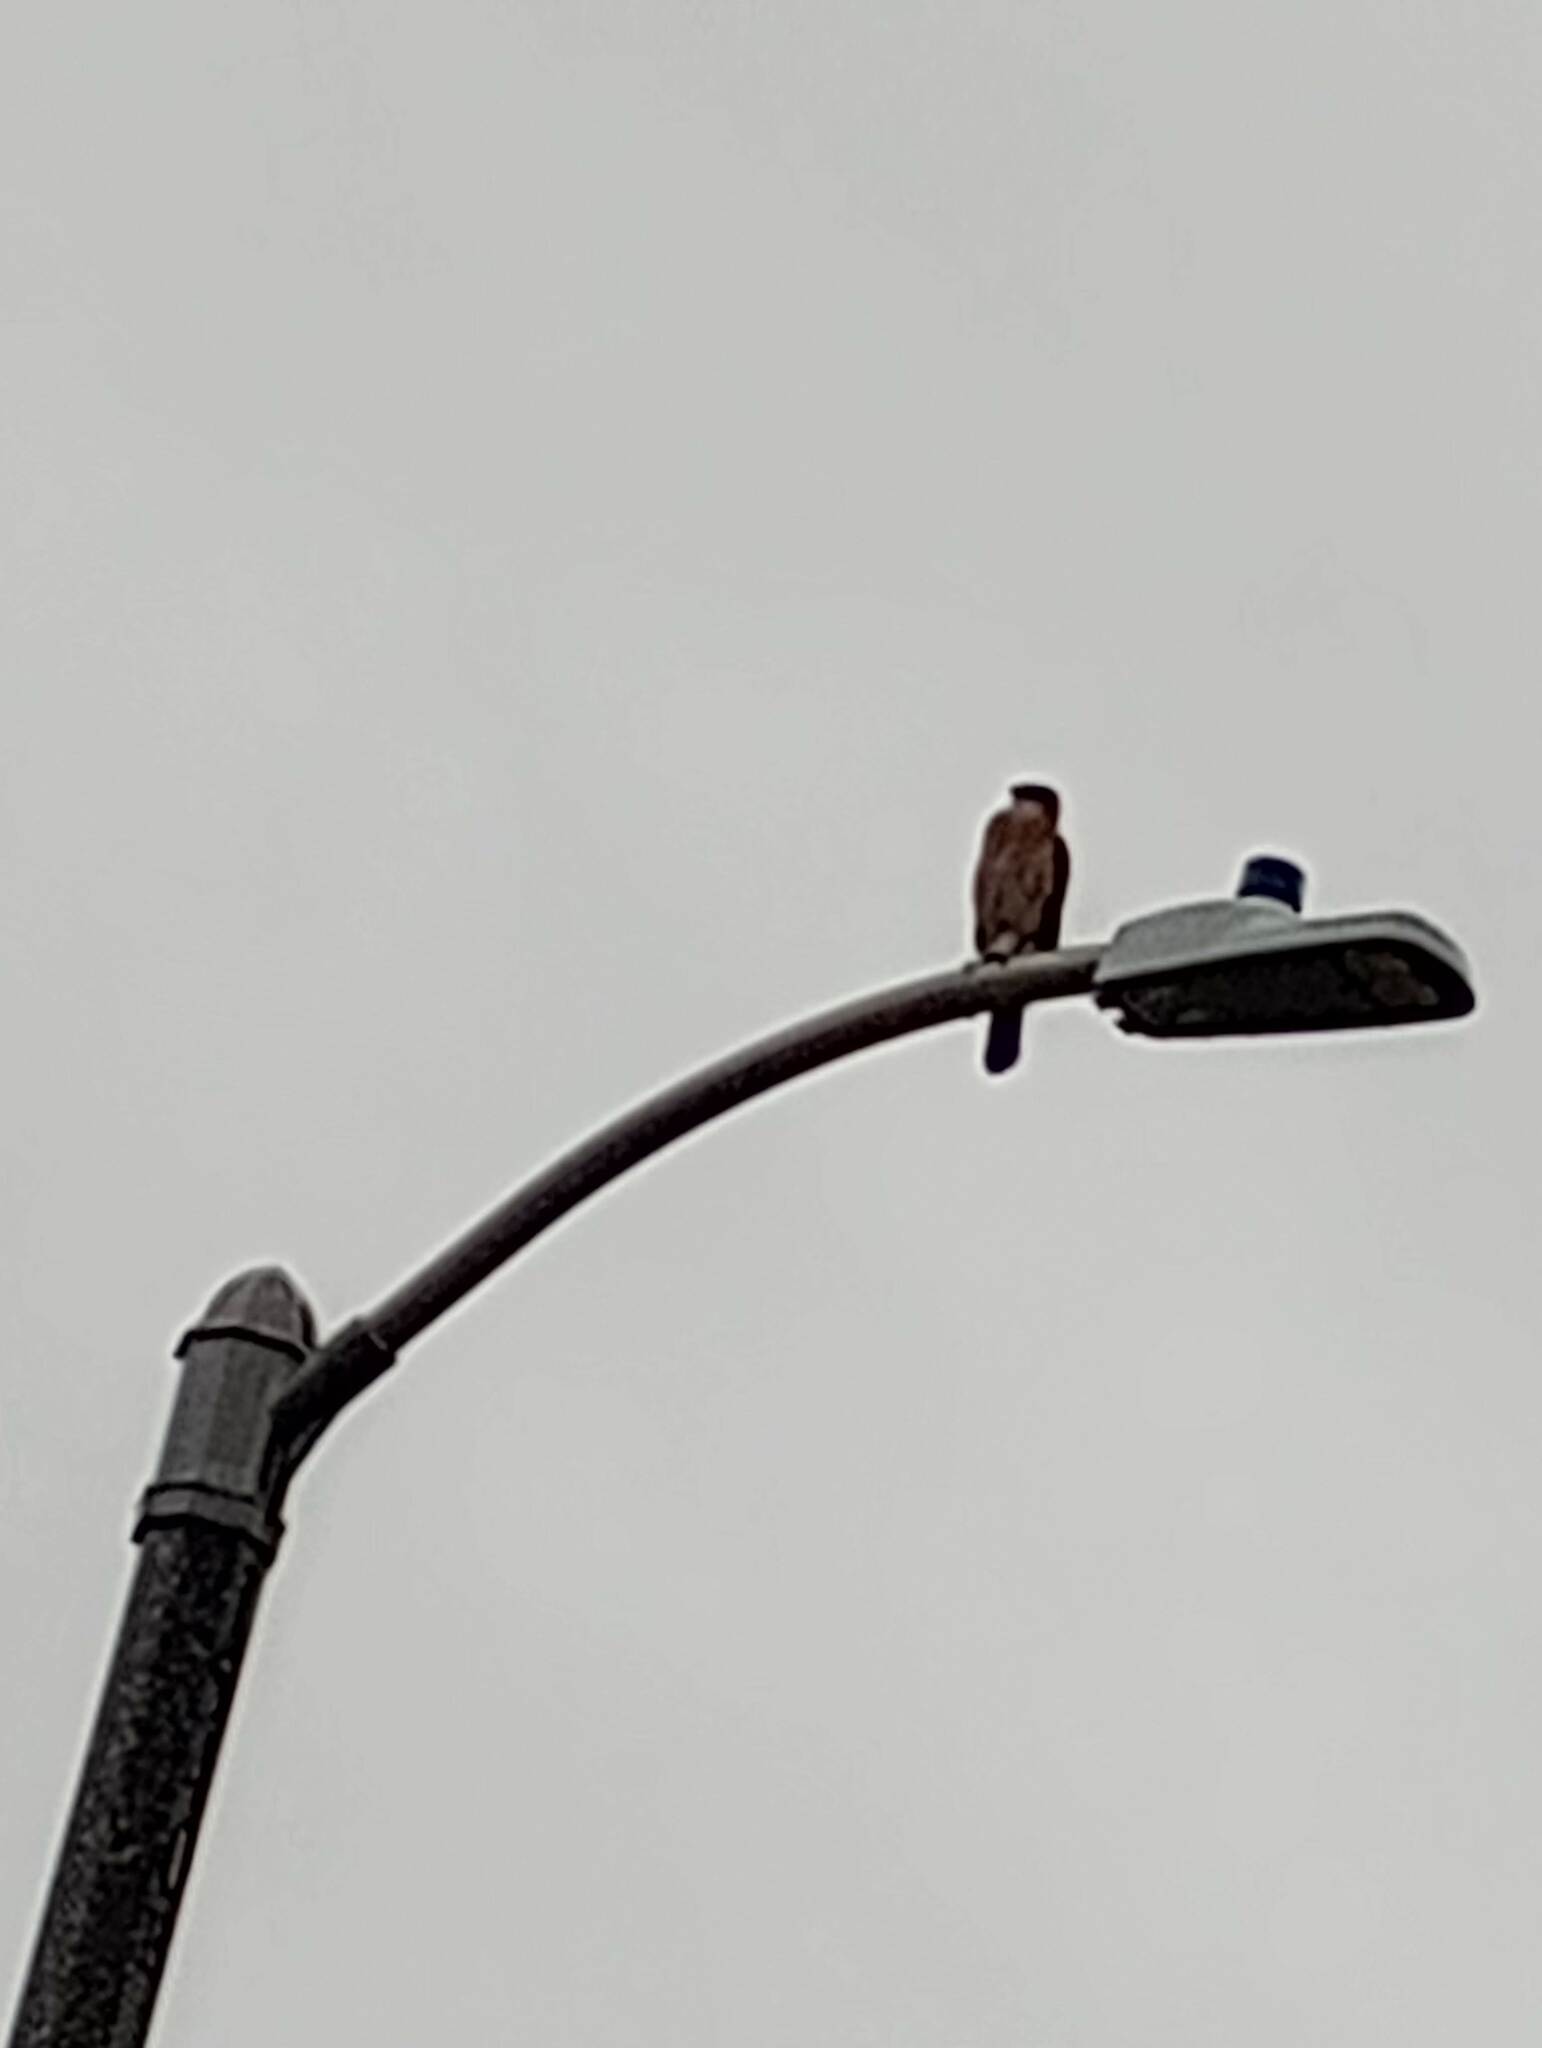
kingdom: Animalia
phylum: Chordata
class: Aves
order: Accipitriformes
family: Accipitridae
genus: Accipiter
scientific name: Accipiter cooperii
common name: Cooper's hawk
